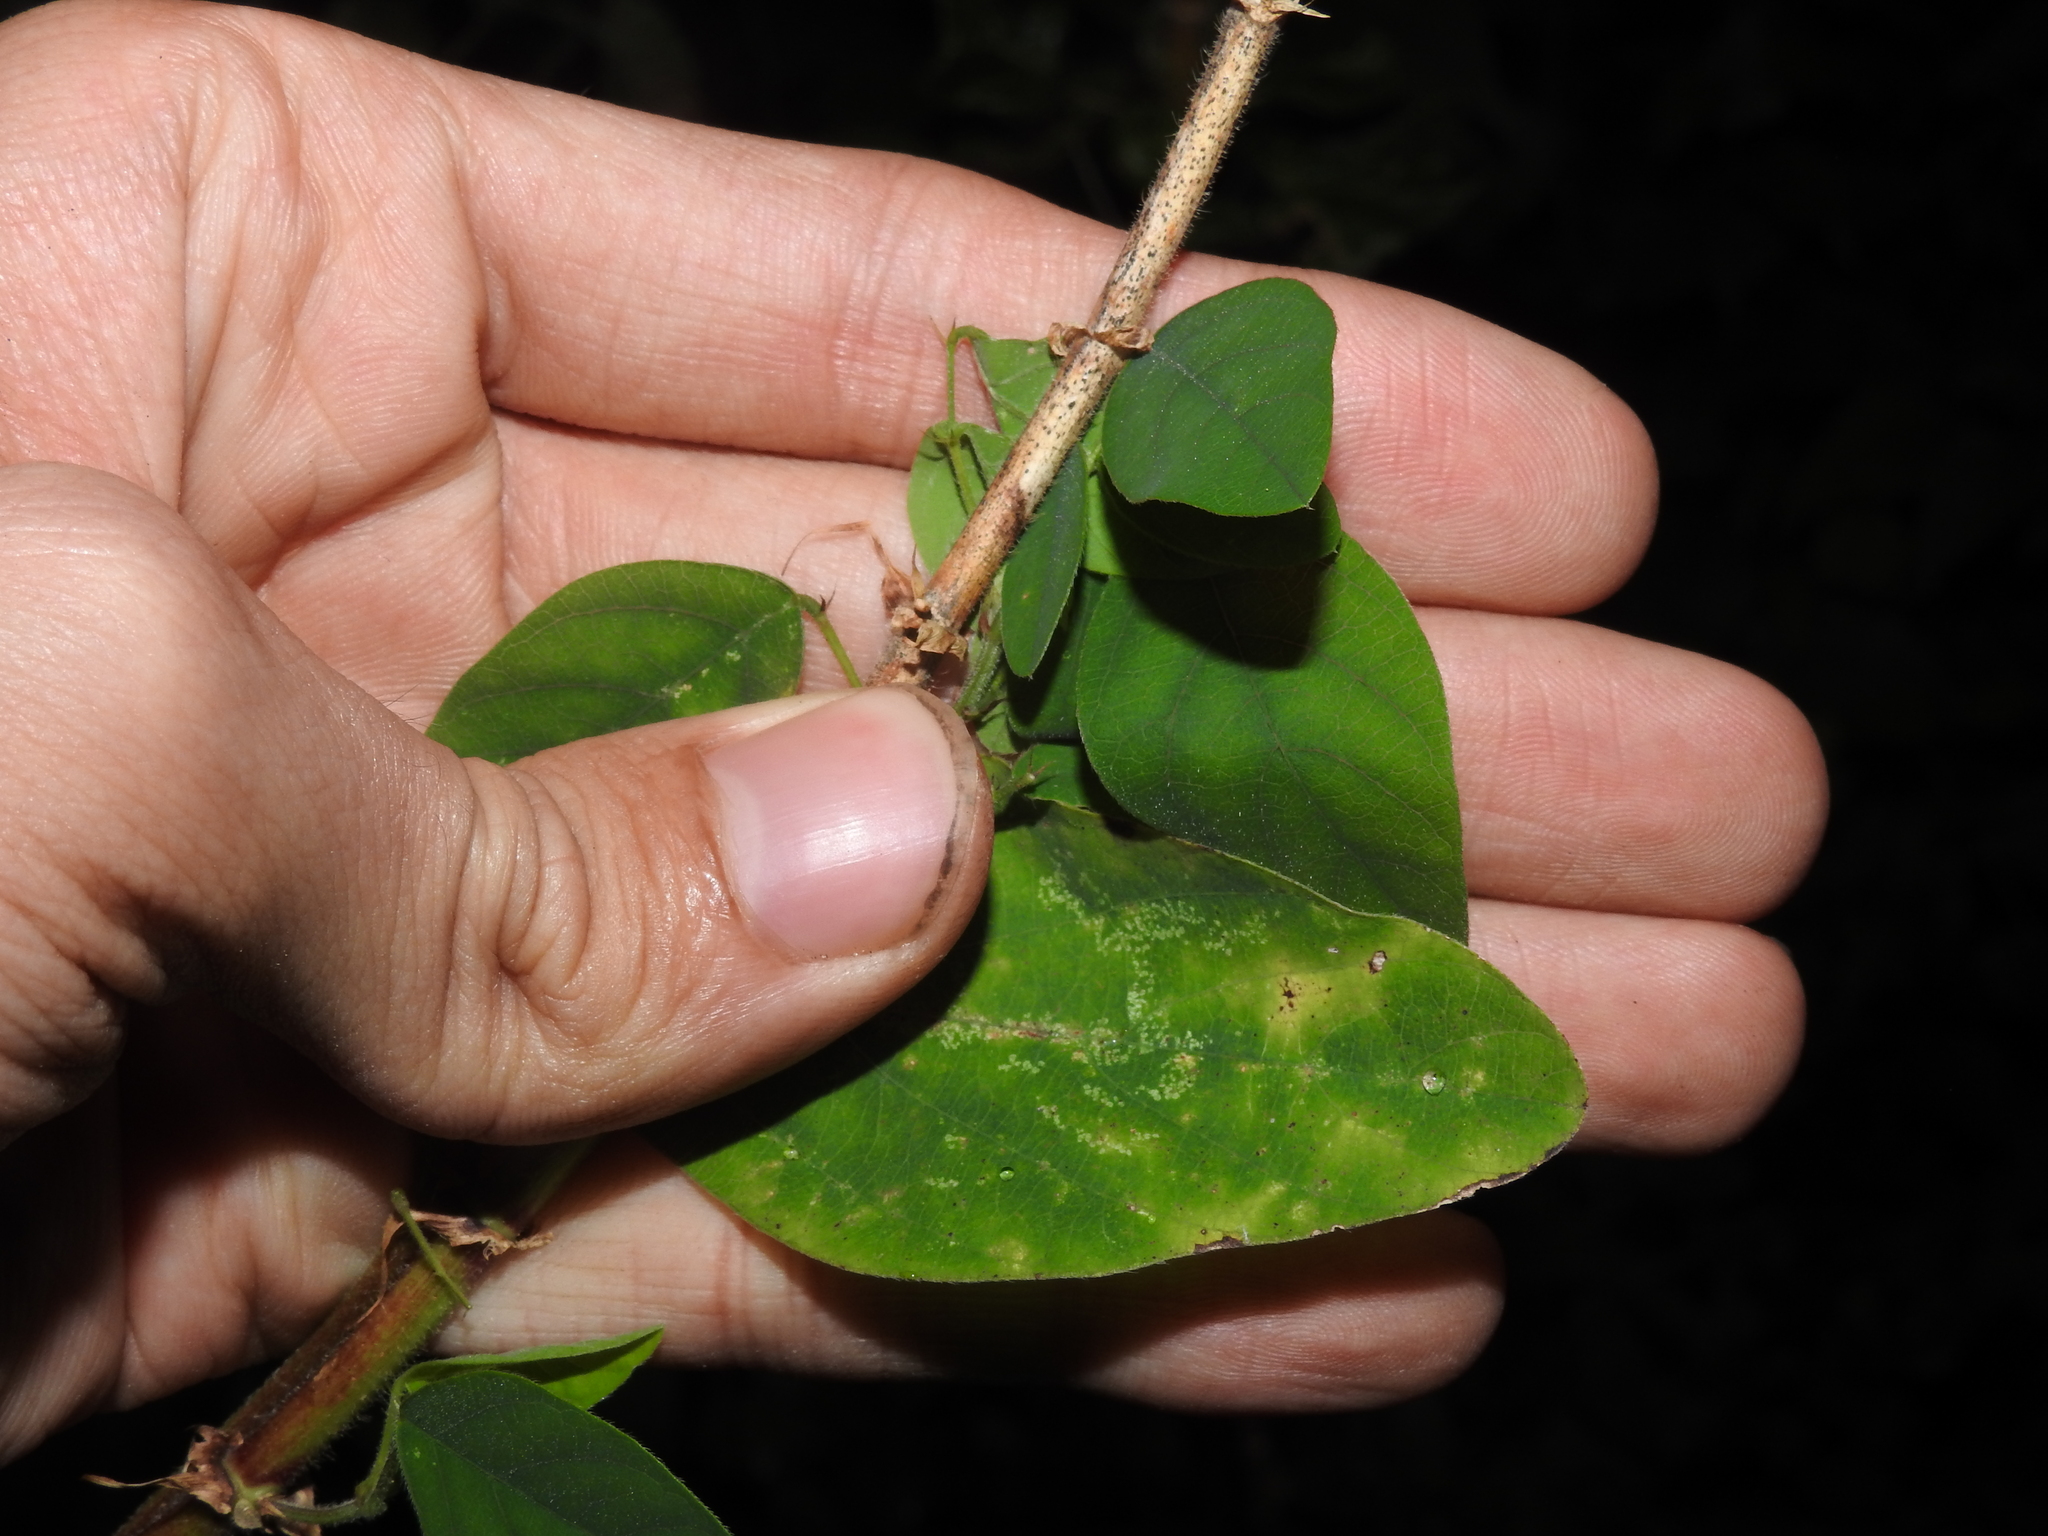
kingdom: Plantae
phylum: Tracheophyta
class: Magnoliopsida
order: Fabales
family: Fabaceae
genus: Desmodium
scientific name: Desmodium tortuosum
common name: Dixie ticktrefoil
